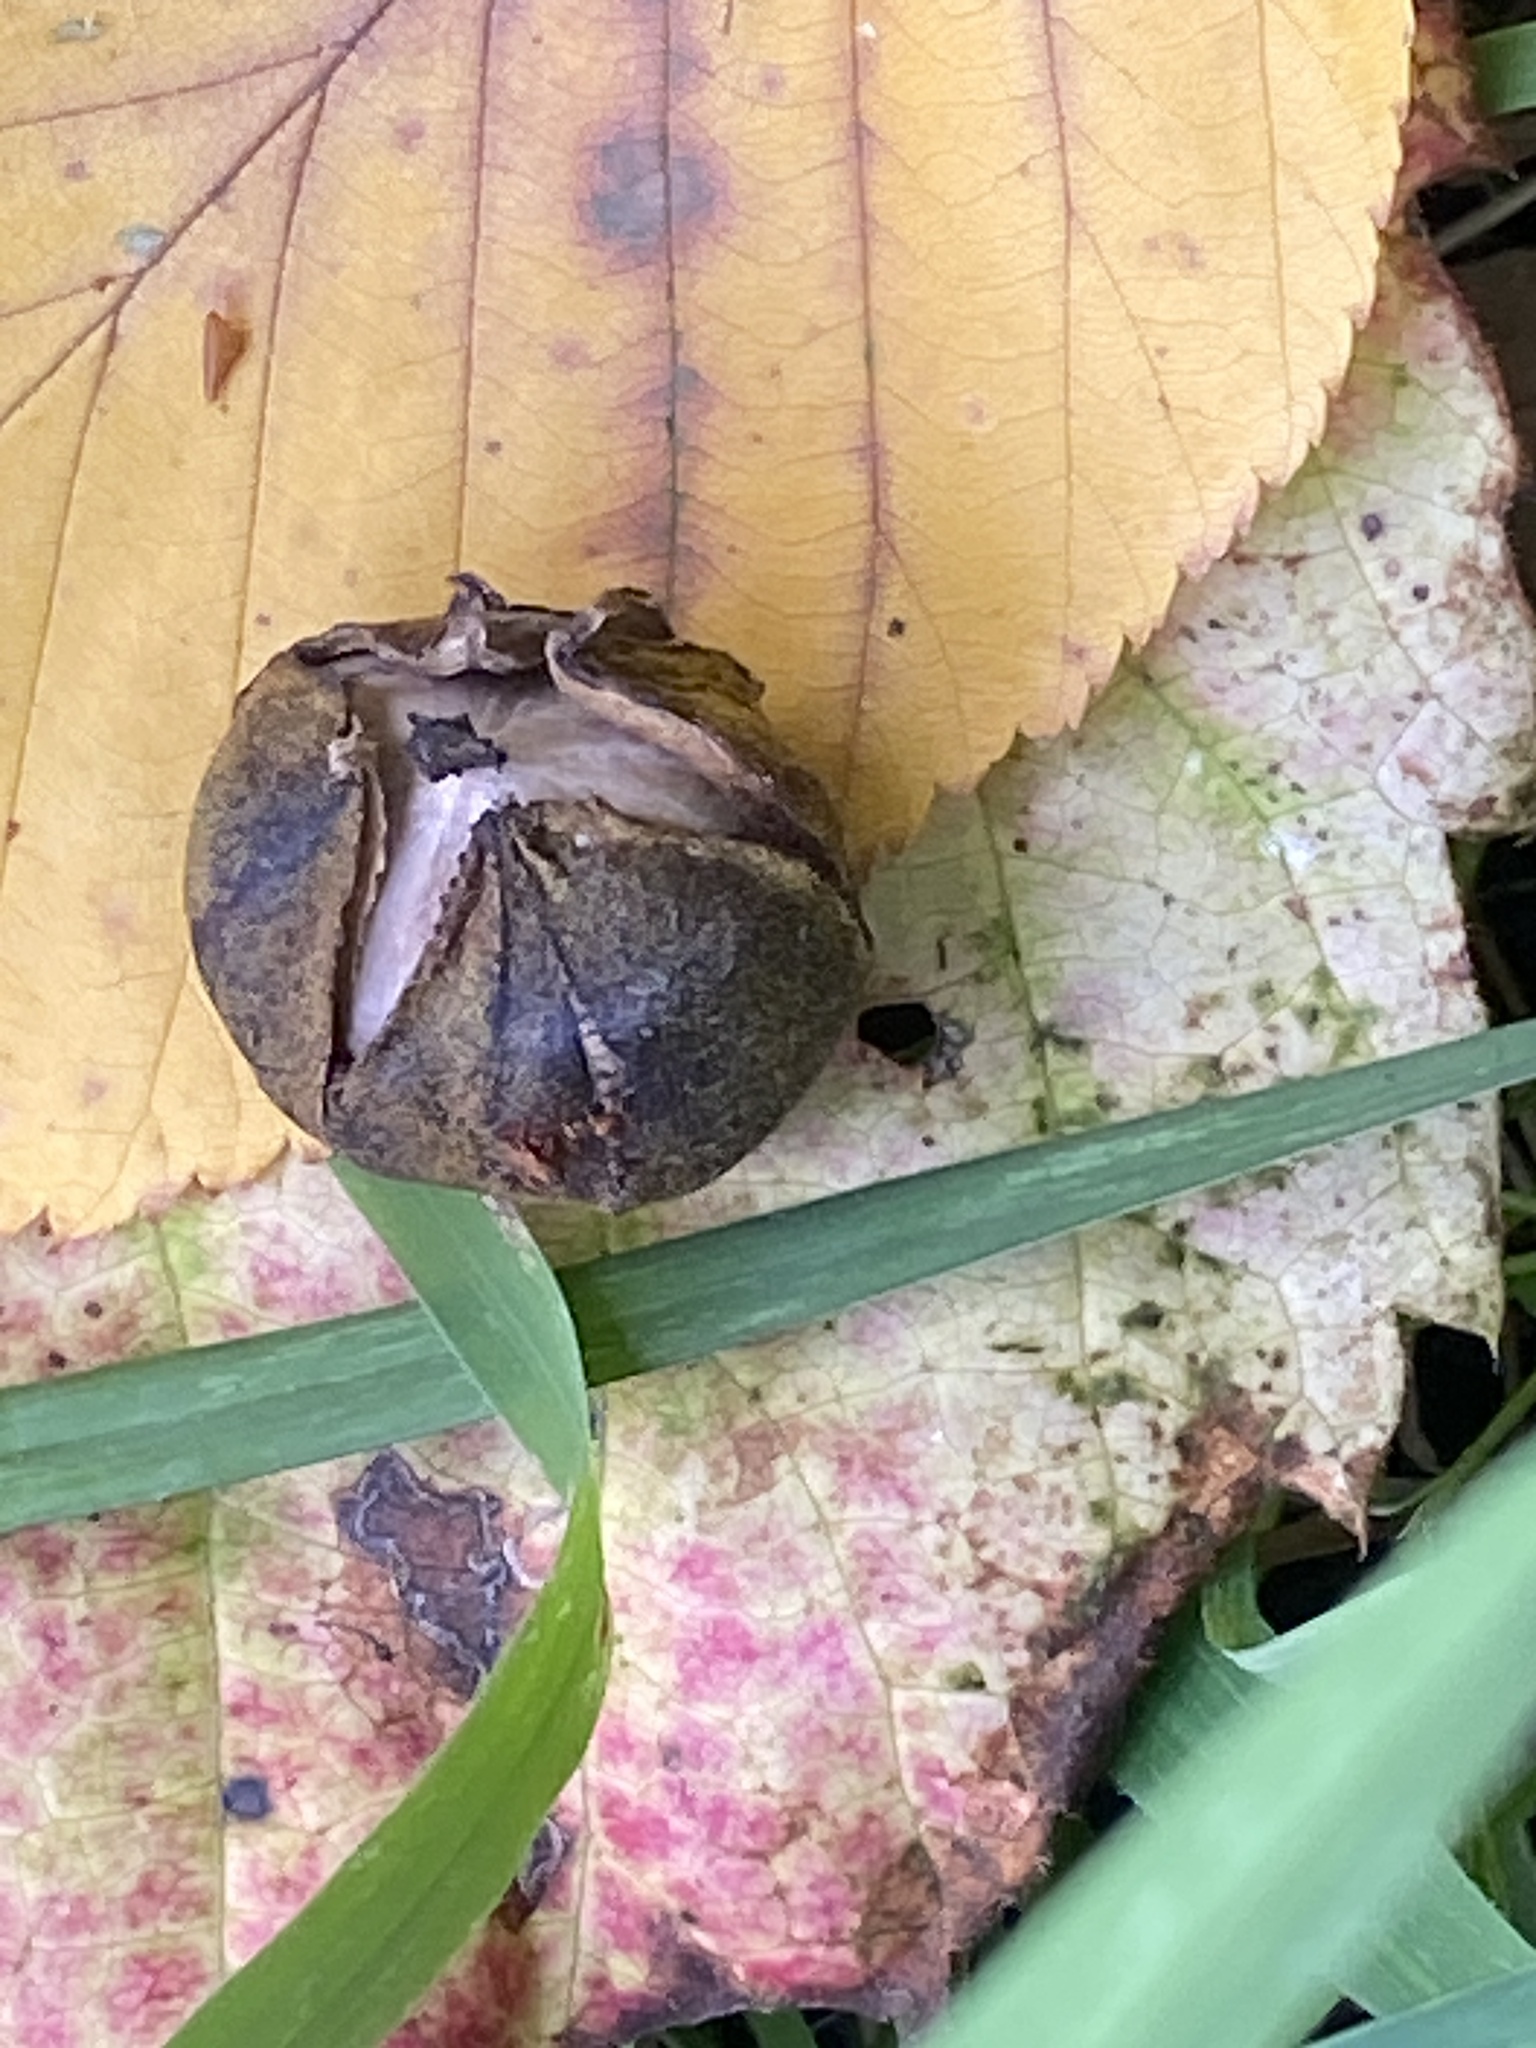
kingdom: Plantae
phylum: Tracheophyta
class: Magnoliopsida
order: Fagales
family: Juglandaceae
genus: Carya
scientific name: Carya cordiformis
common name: Bitternut hickory
